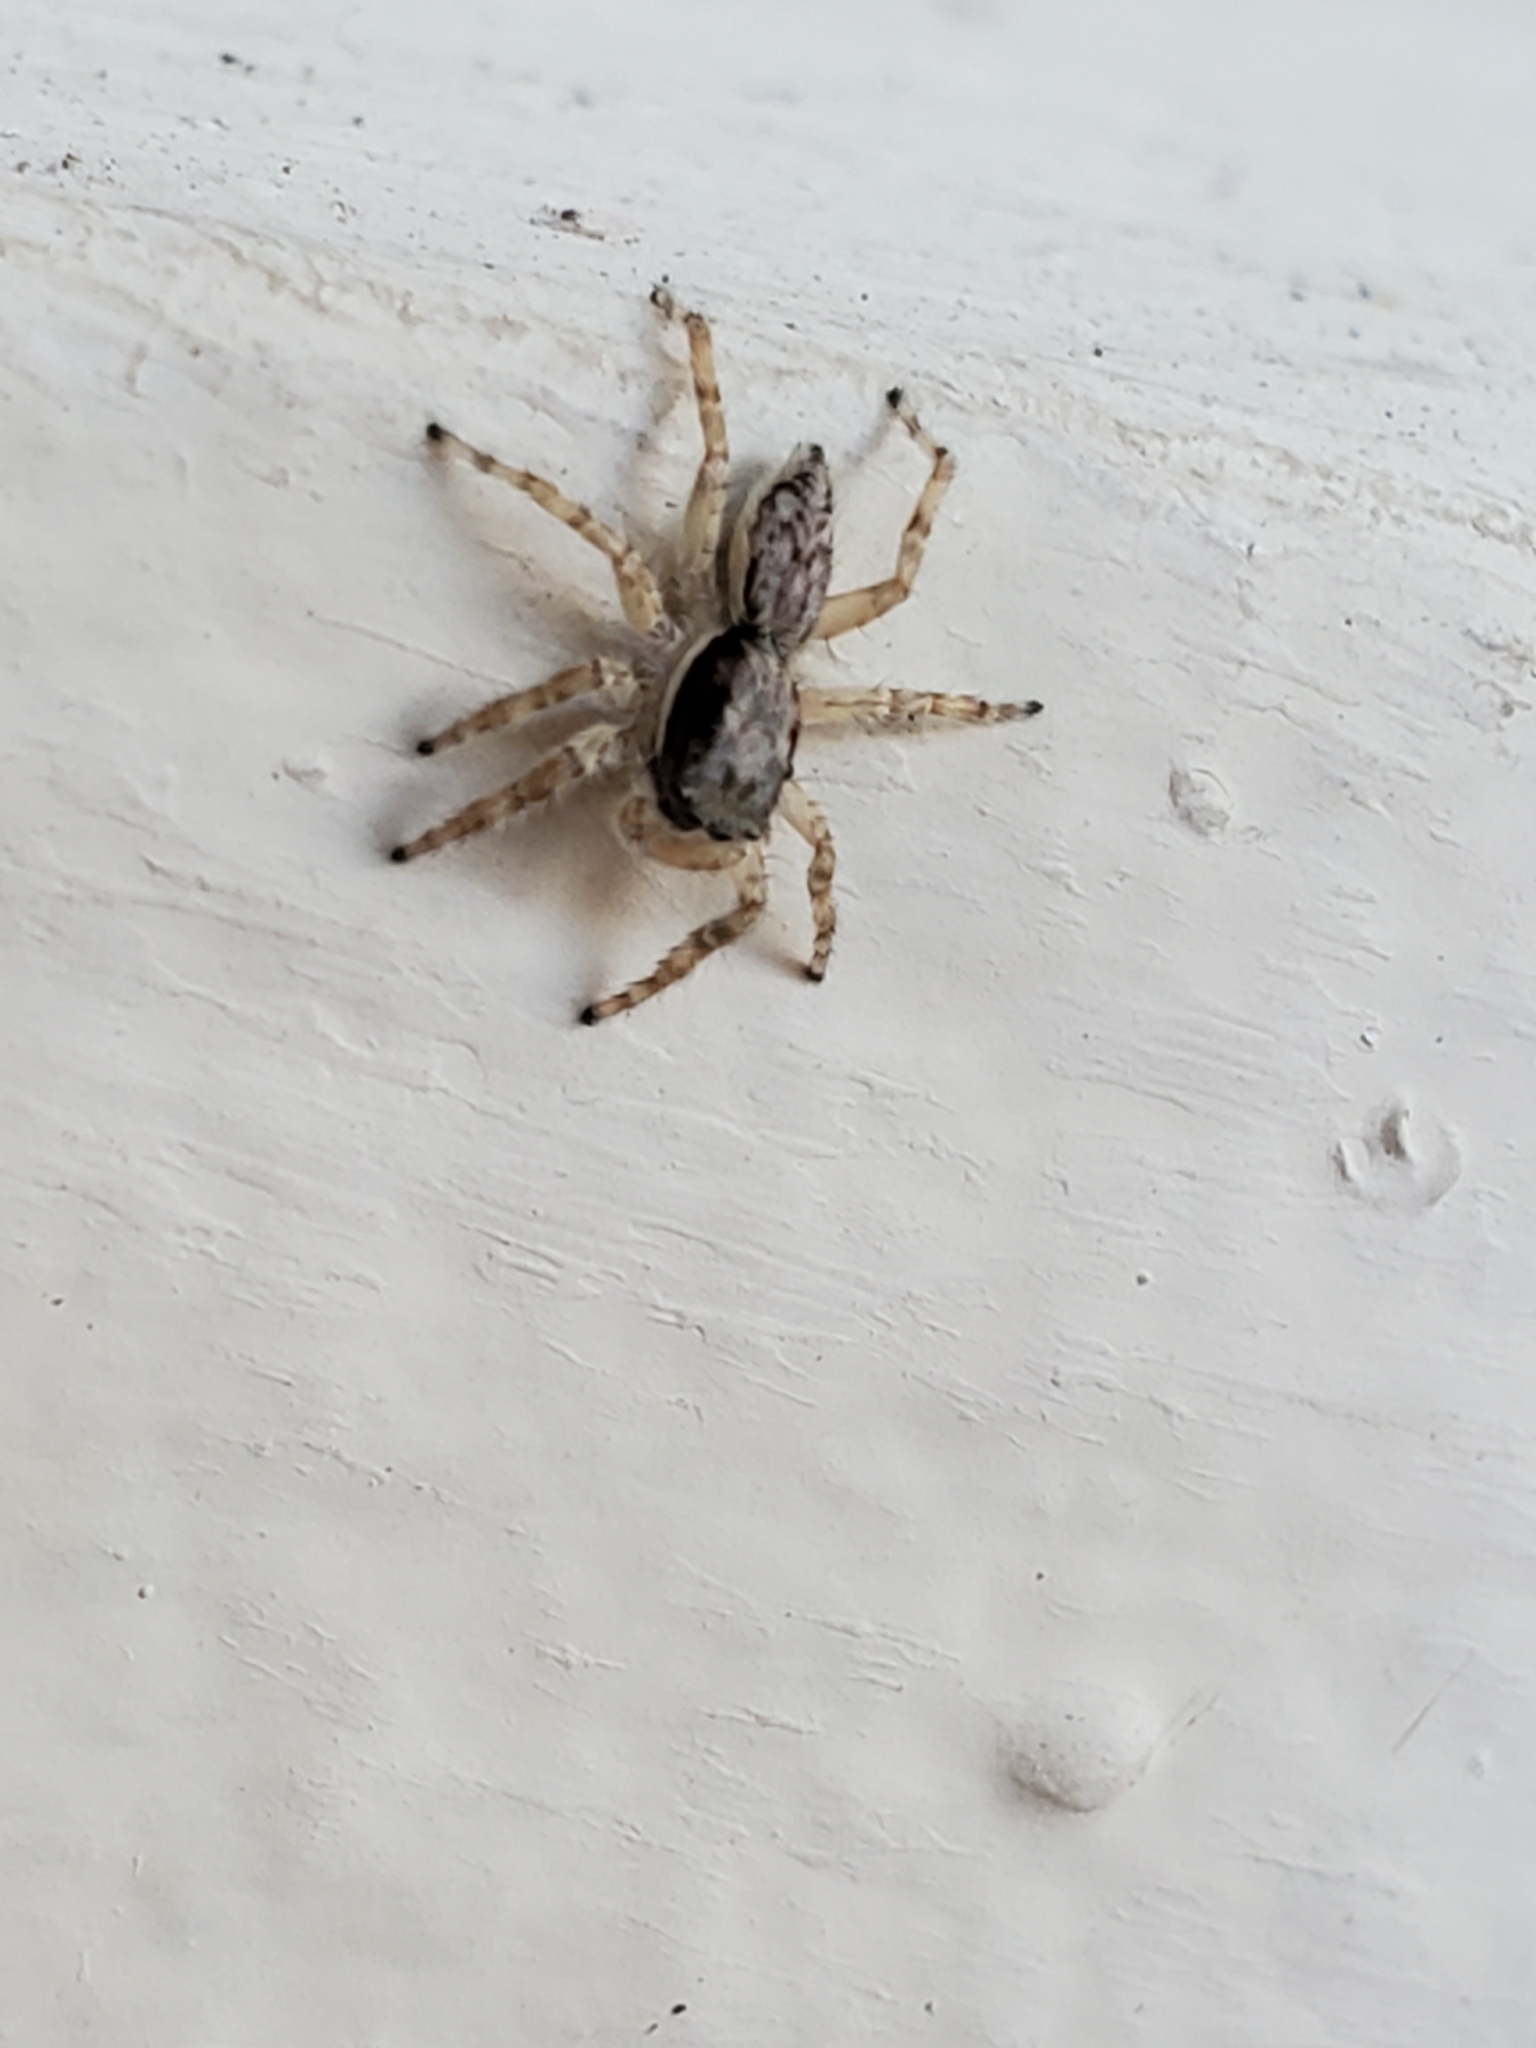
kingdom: Animalia
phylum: Arthropoda
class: Arachnida
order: Araneae
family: Salticidae
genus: Menemerus
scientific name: Menemerus bivittatus
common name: Gray wall jumper
